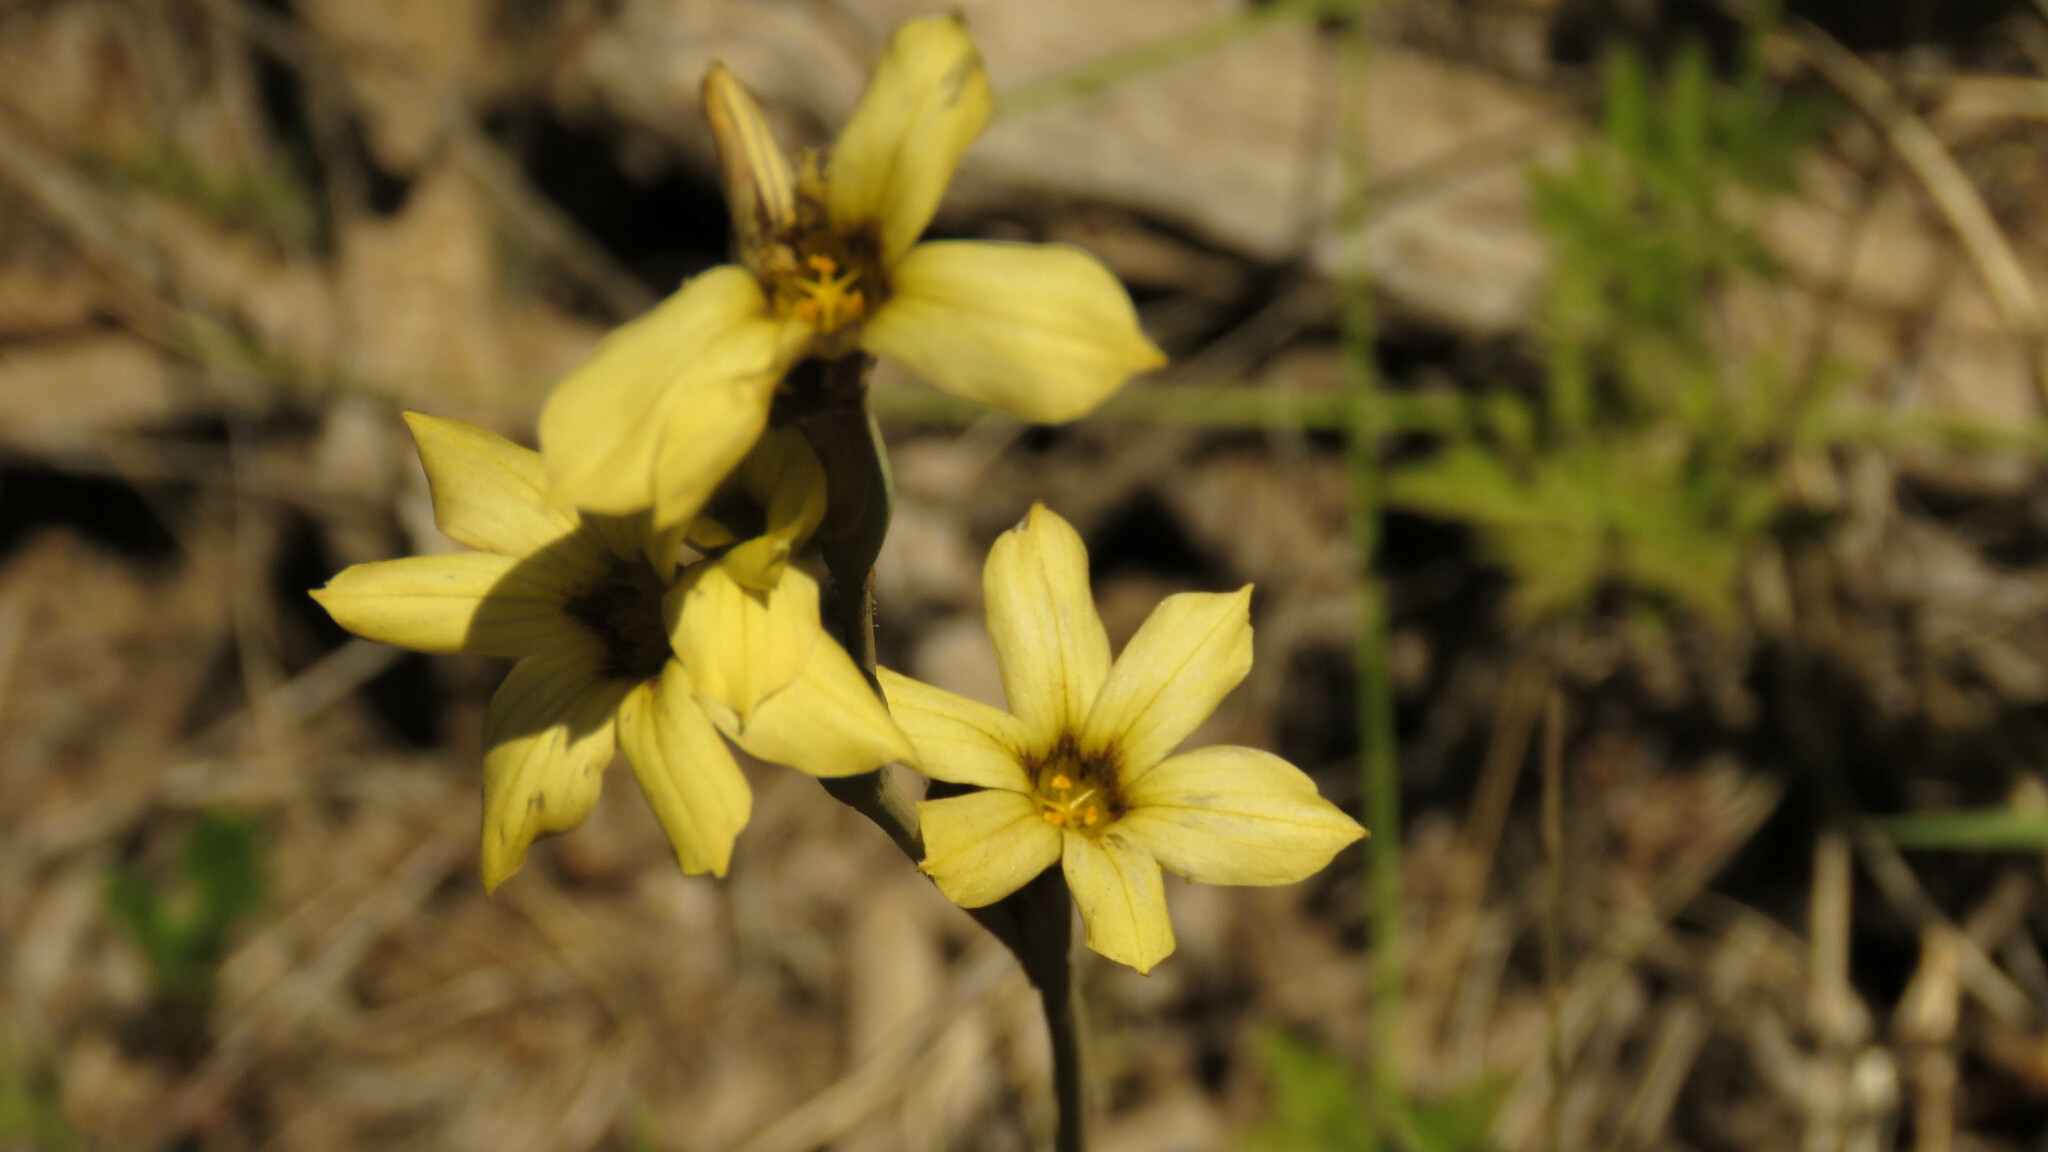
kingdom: Plantae
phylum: Tracheophyta
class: Liliopsida
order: Asparagales
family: Iridaceae
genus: Sisyrinchium
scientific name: Sisyrinchium arenarium
